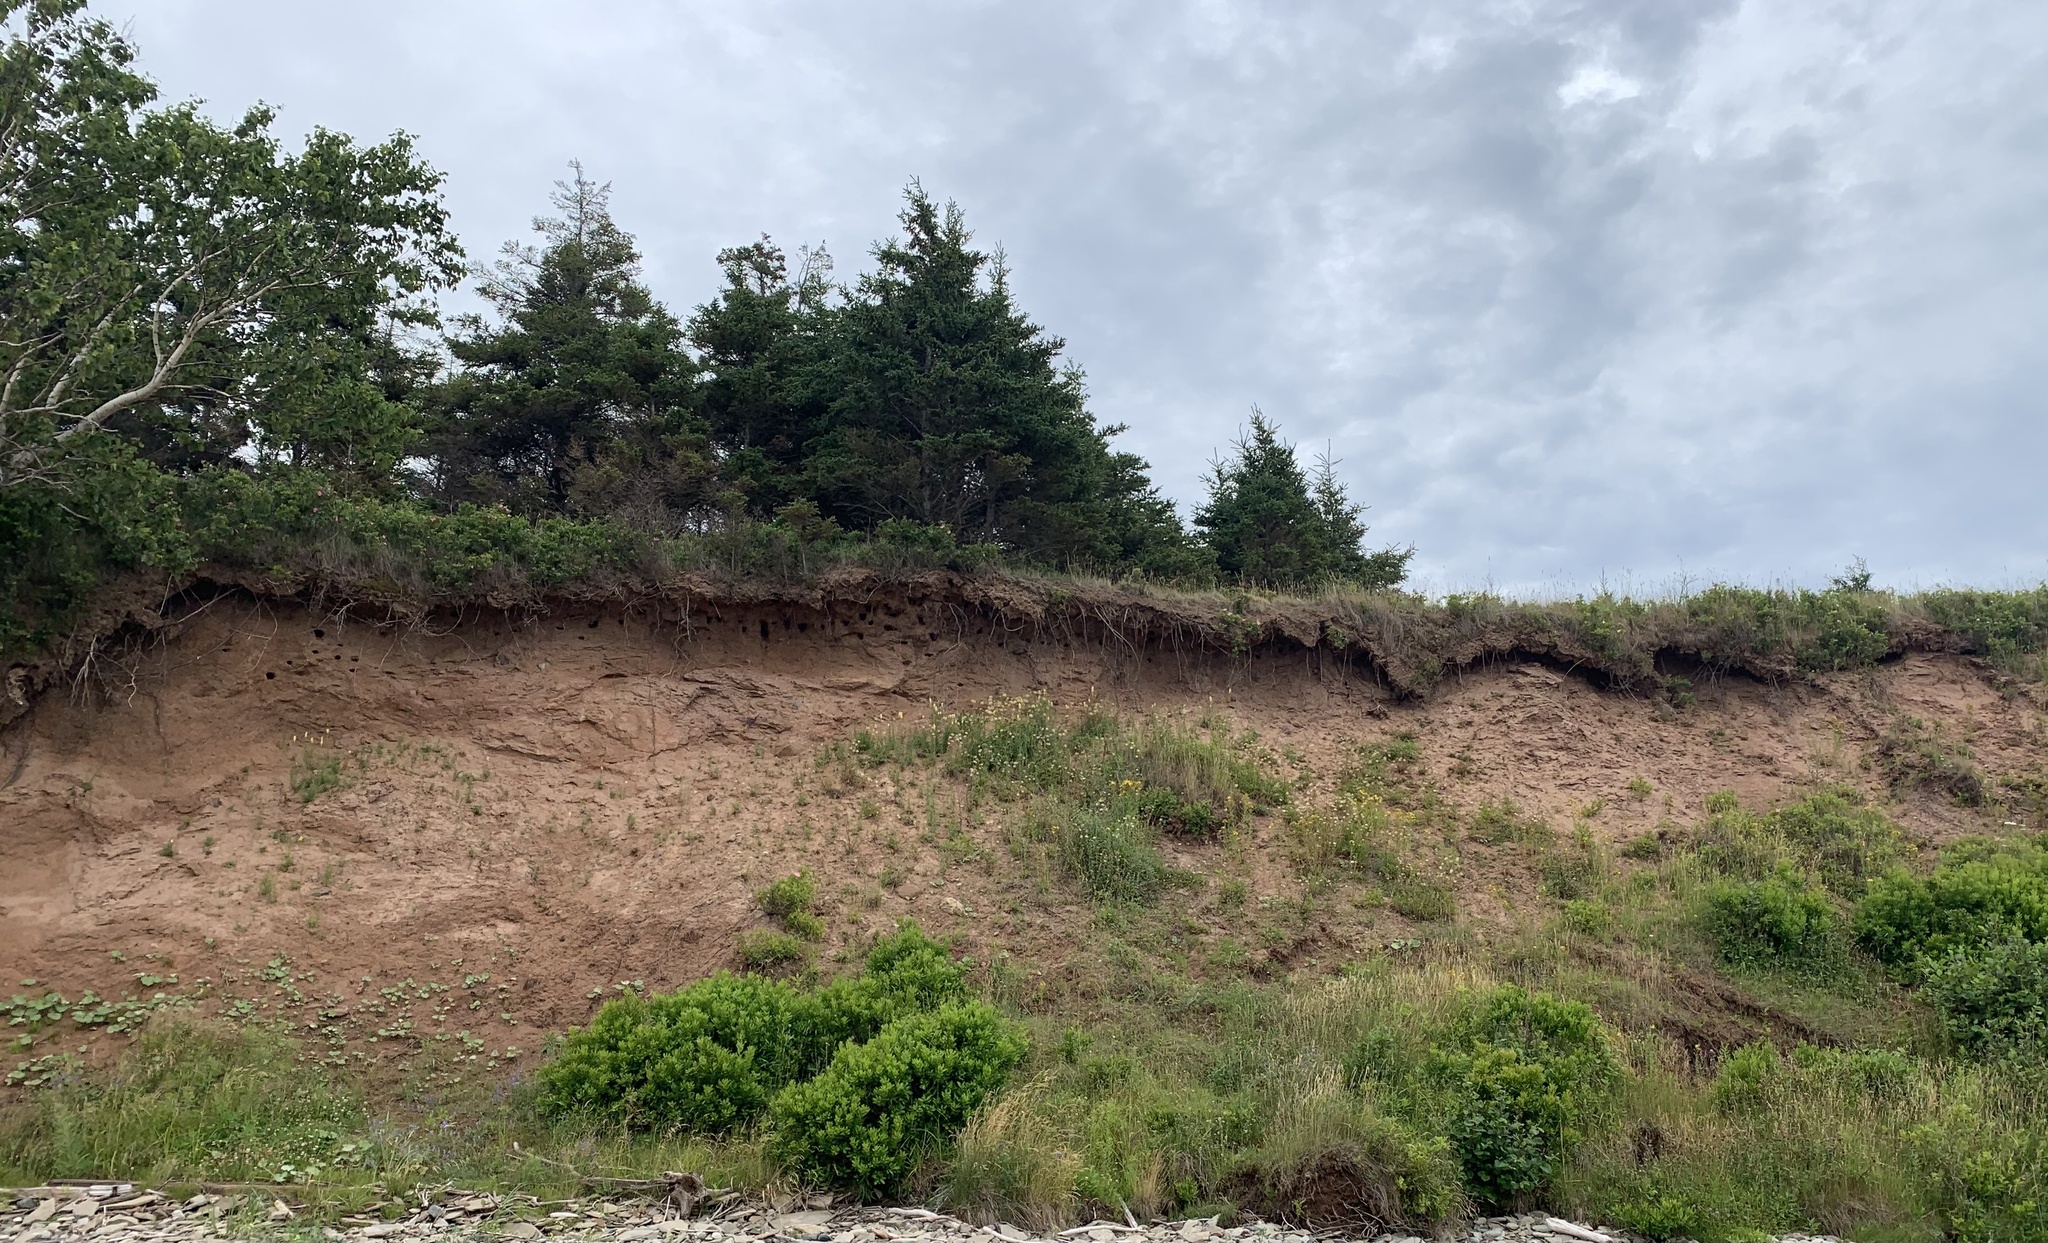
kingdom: Animalia
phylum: Chordata
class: Aves
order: Passeriformes
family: Hirundinidae
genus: Riparia
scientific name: Riparia riparia
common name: Sand martin
